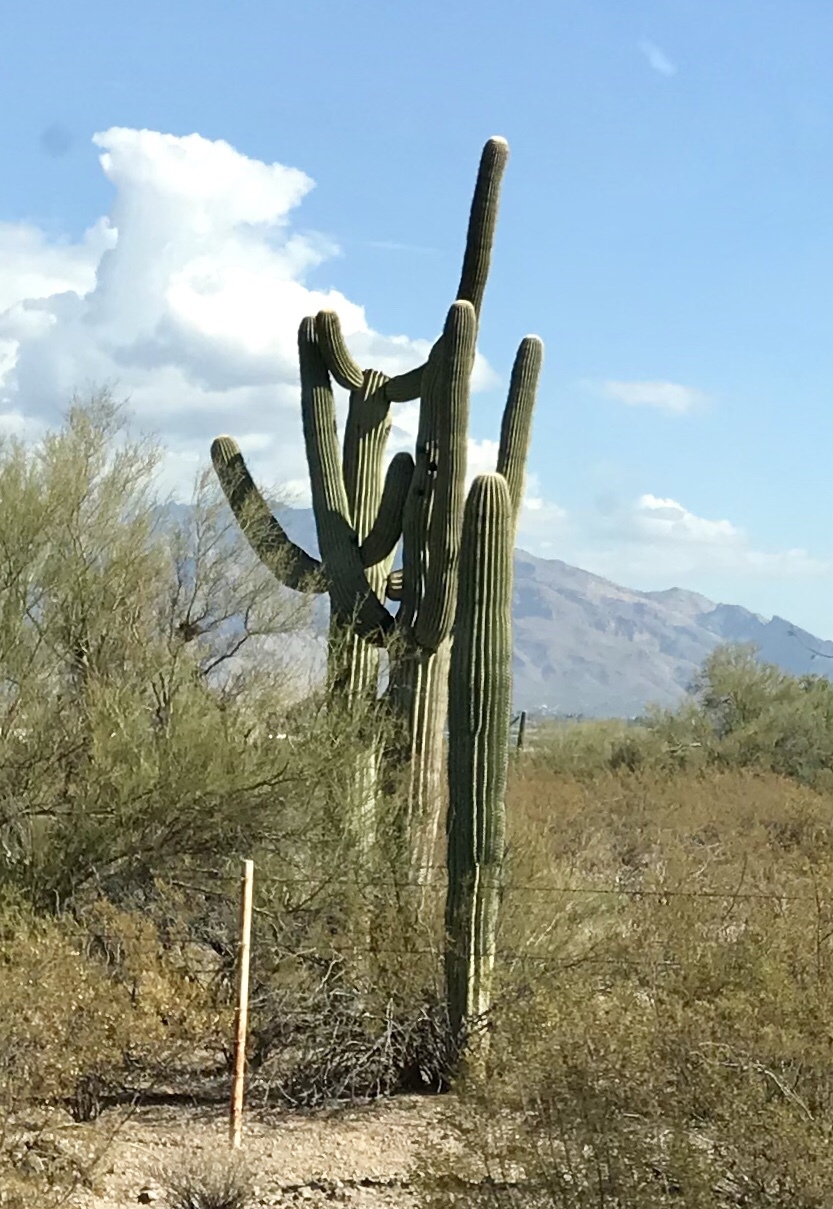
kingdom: Plantae
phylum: Tracheophyta
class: Magnoliopsida
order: Caryophyllales
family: Cactaceae
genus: Carnegiea
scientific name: Carnegiea gigantea
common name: Saguaro
